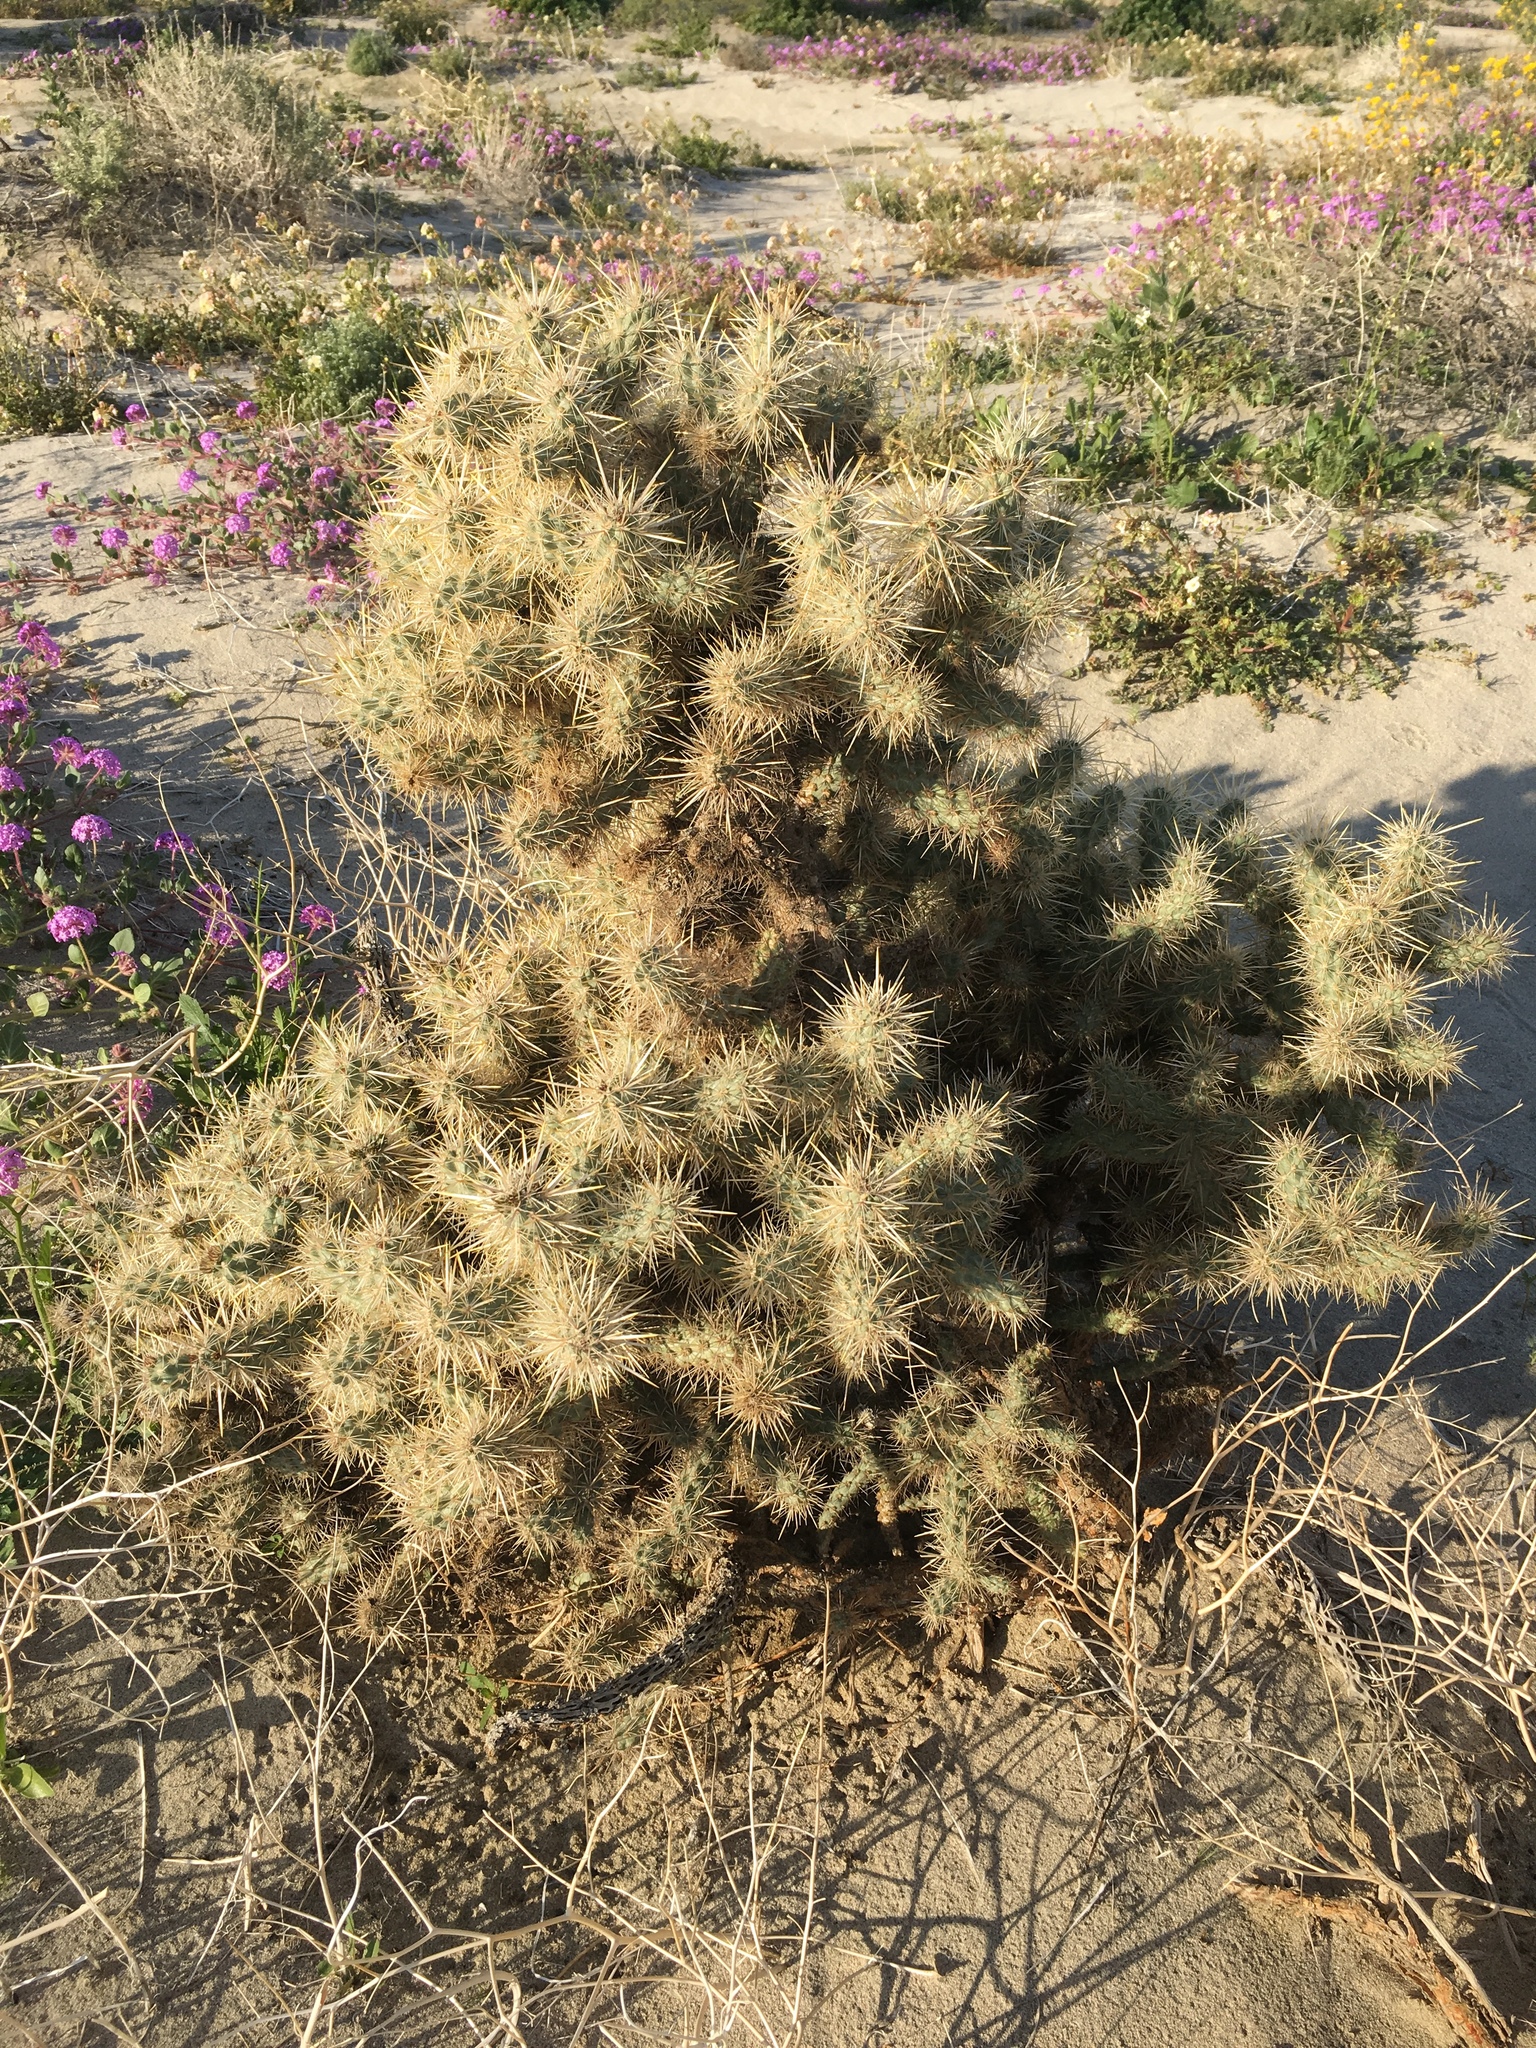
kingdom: Plantae
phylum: Tracheophyta
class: Magnoliopsida
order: Caryophyllales
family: Cactaceae
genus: Cylindropuntia
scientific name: Cylindropuntia echinocarpa
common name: Ground cholla
